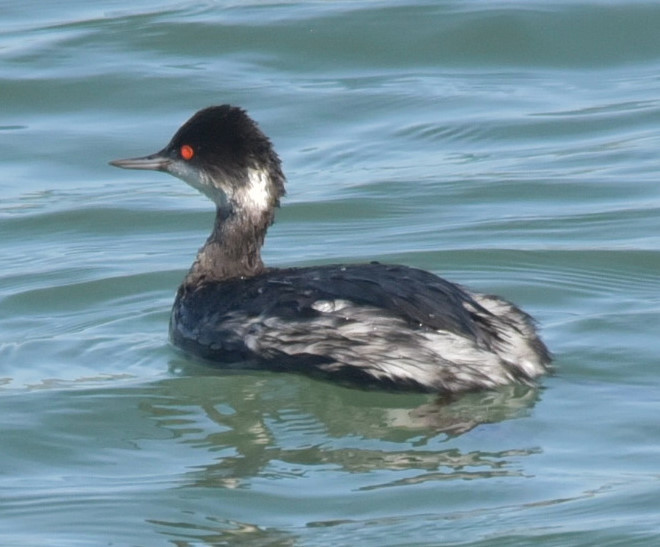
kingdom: Animalia
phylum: Chordata
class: Aves
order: Podicipediformes
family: Podicipedidae
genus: Podiceps
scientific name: Podiceps nigricollis
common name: Black-necked grebe
